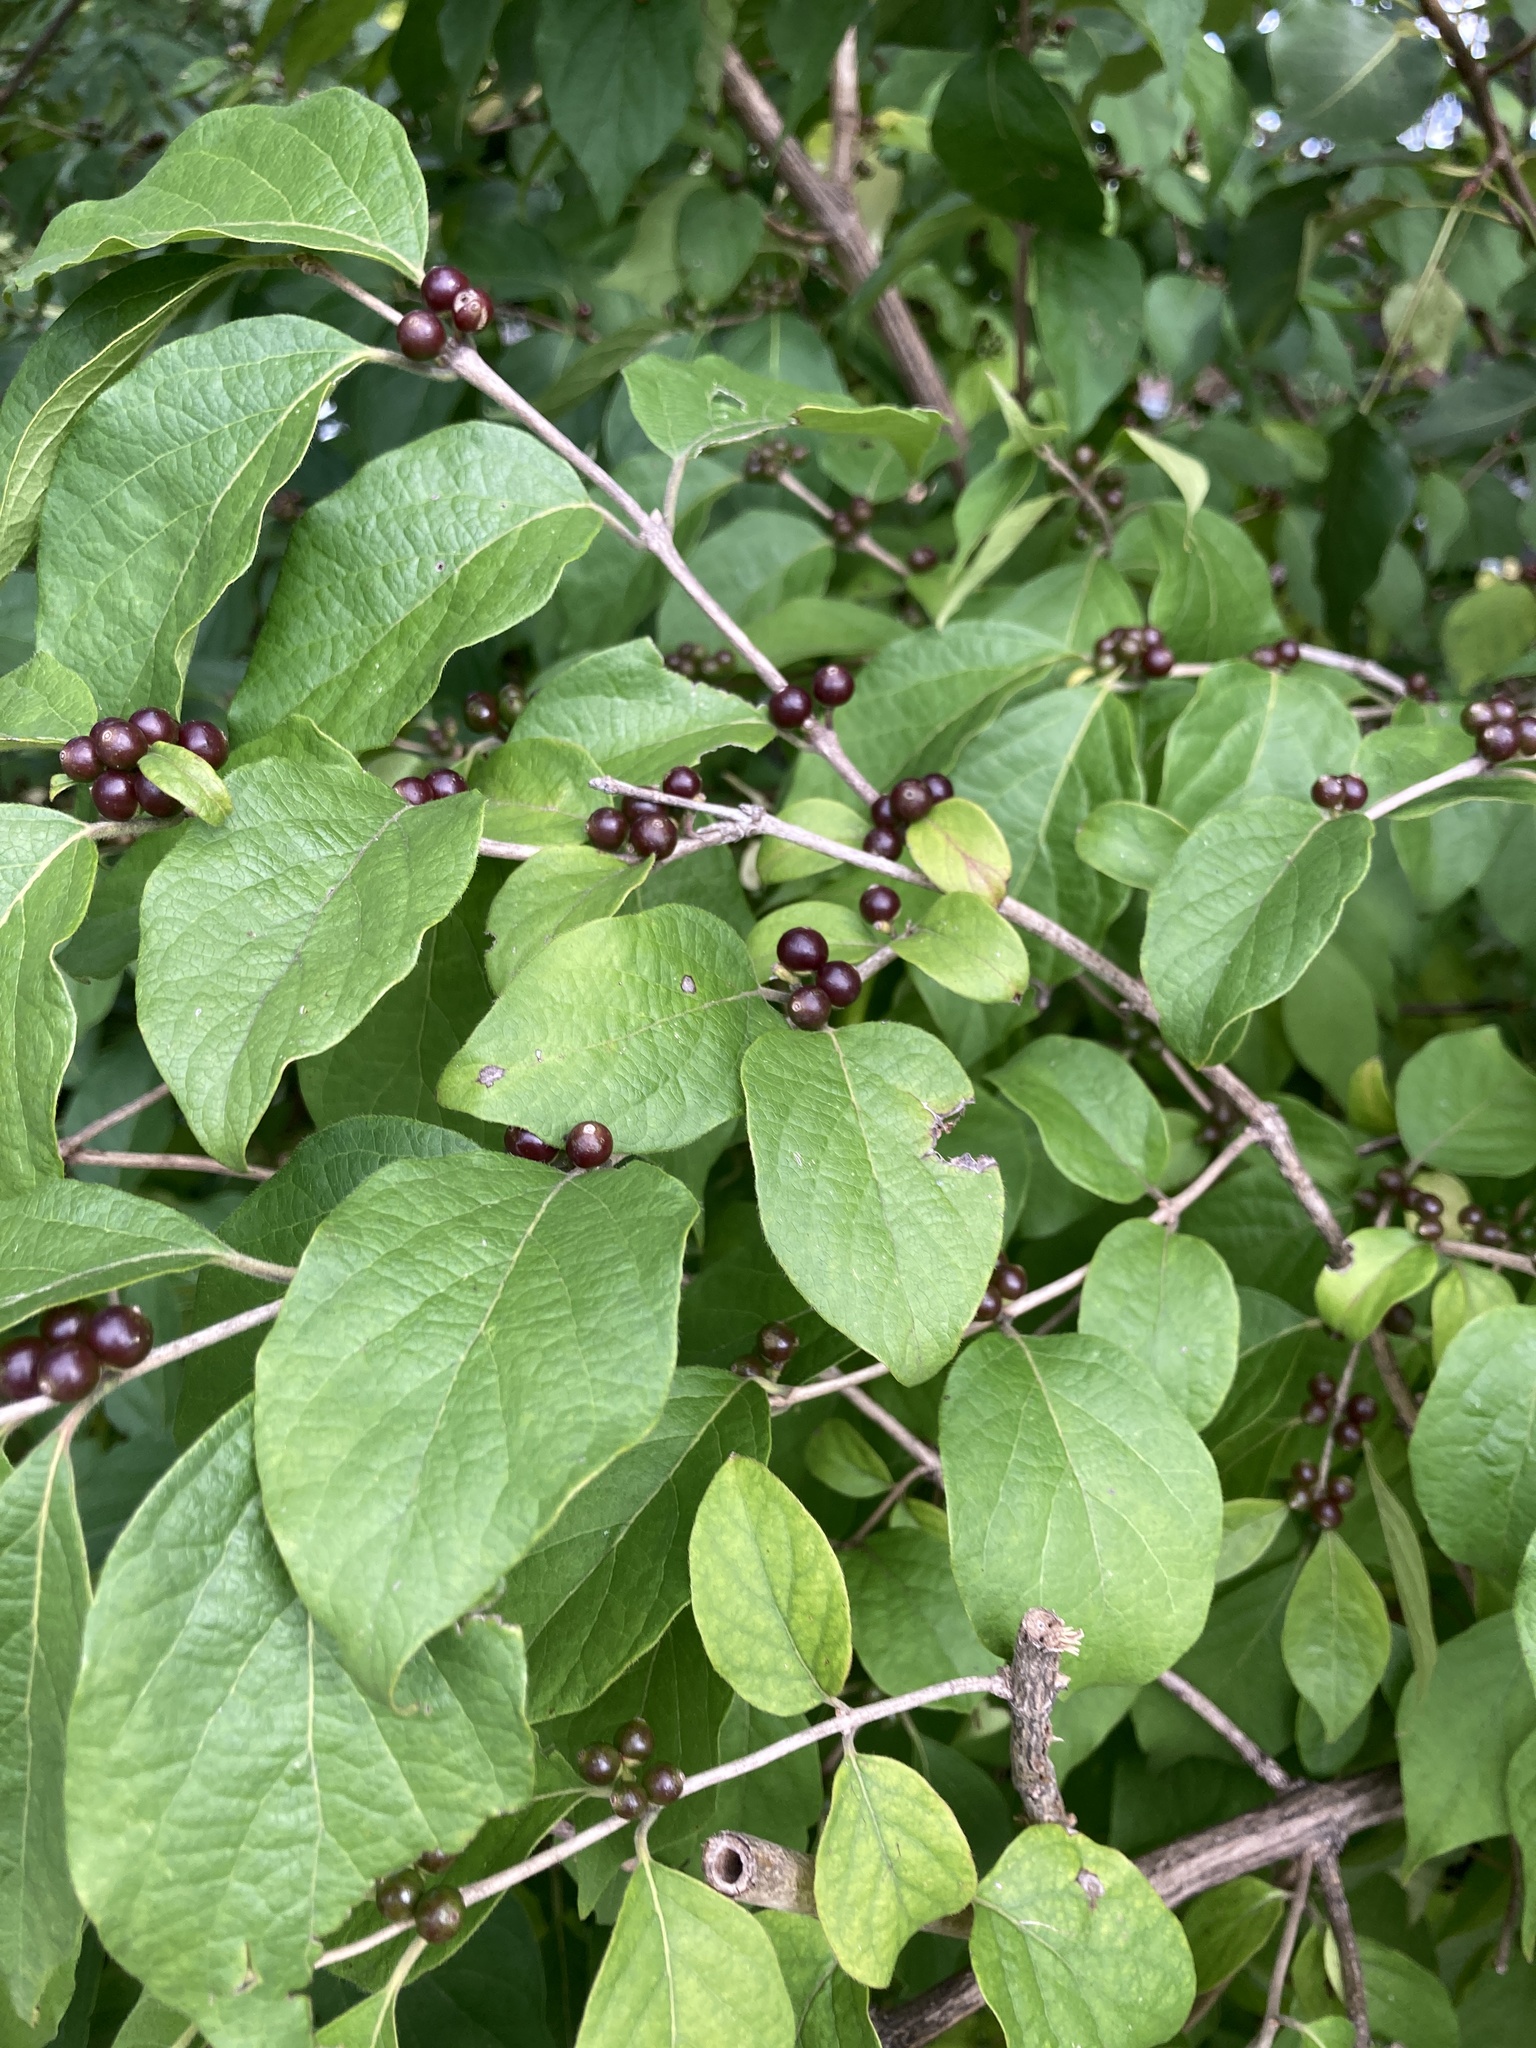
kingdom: Plantae
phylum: Tracheophyta
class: Magnoliopsida
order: Dipsacales
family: Caprifoliaceae
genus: Lonicera
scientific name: Lonicera maackii
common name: Amur honeysuckle
